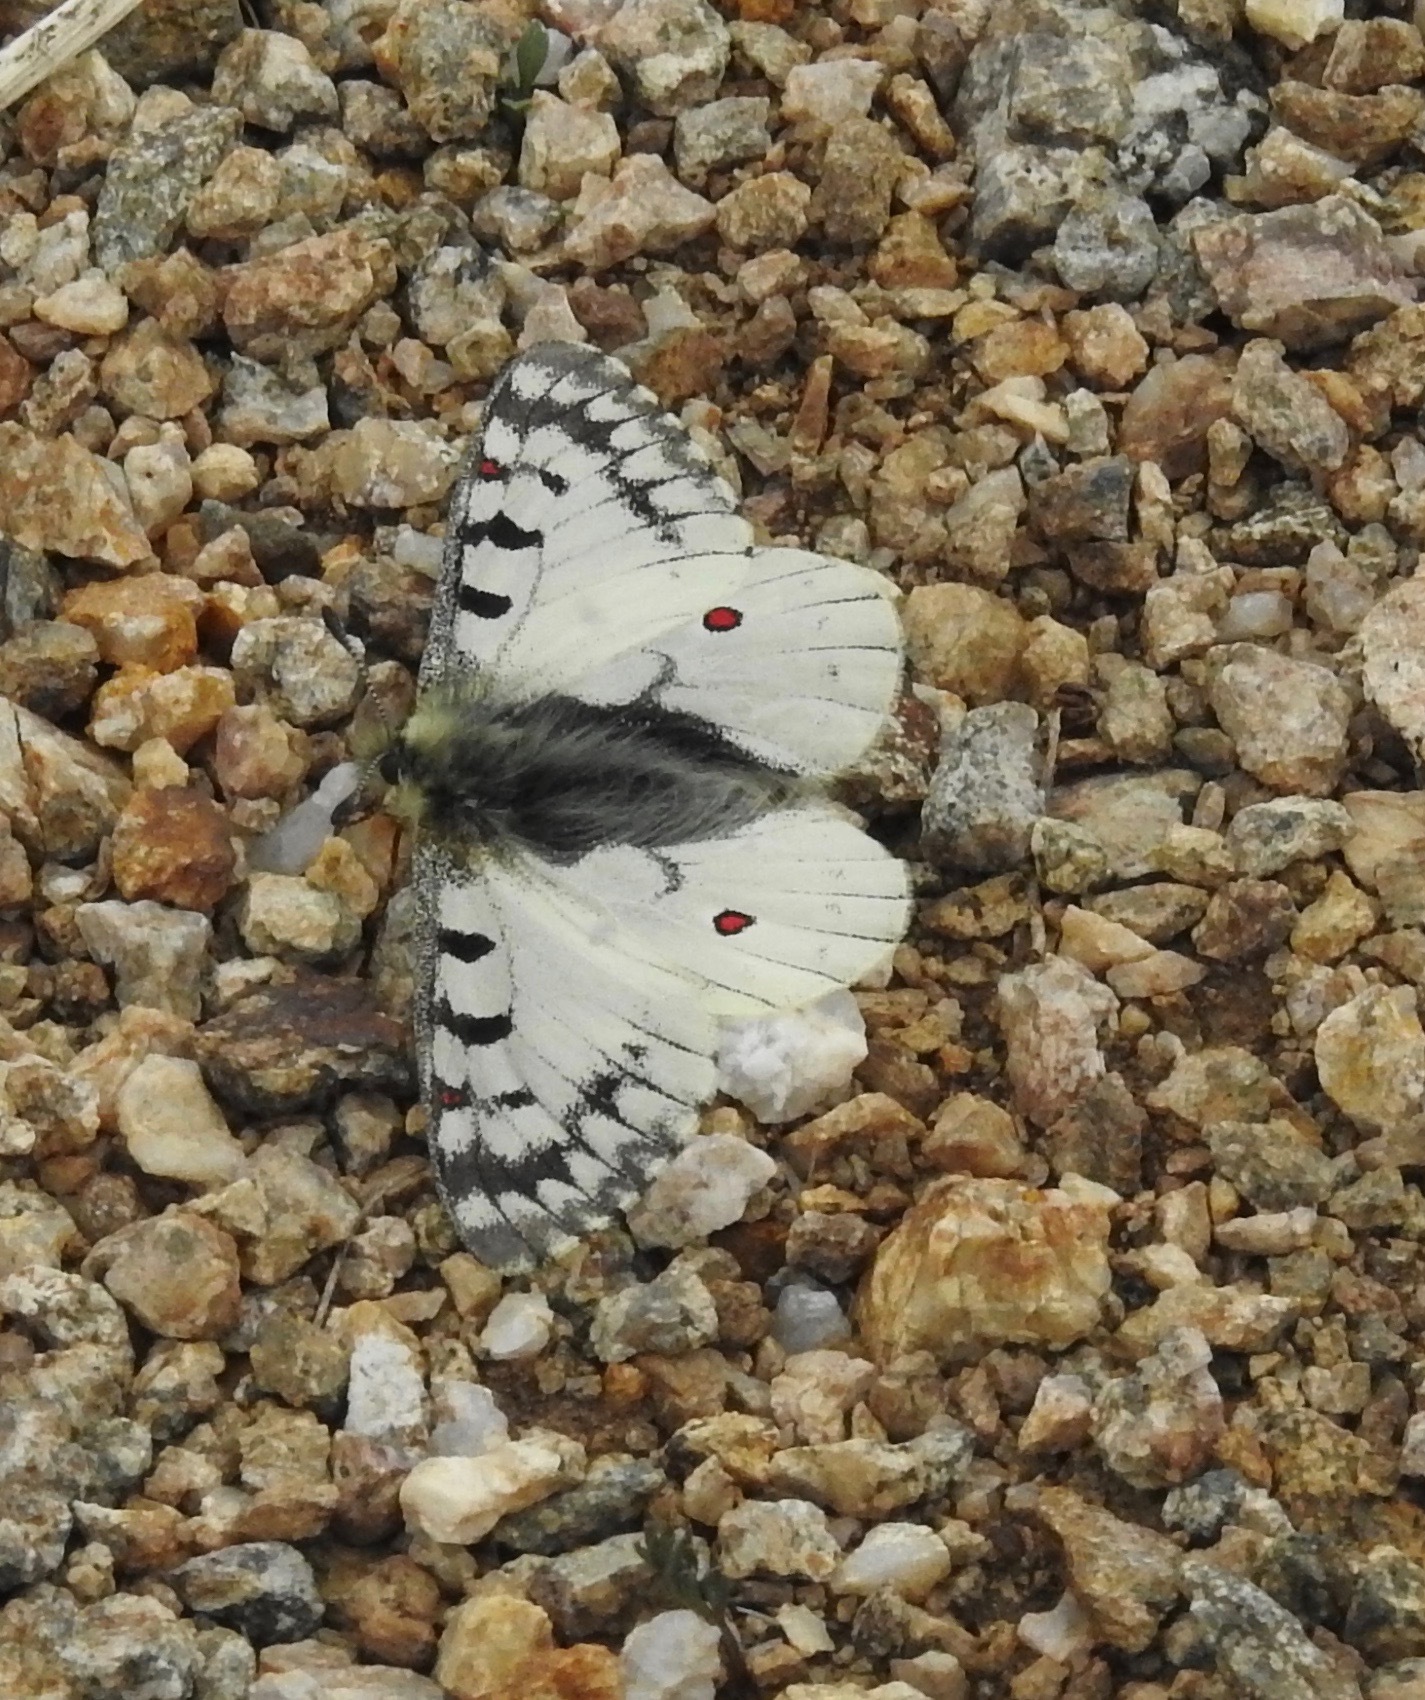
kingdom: Animalia
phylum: Arthropoda
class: Insecta
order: Lepidoptera
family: Papilionidae
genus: Parnassius
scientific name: Parnassius smintheus
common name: Mountain parnassian
